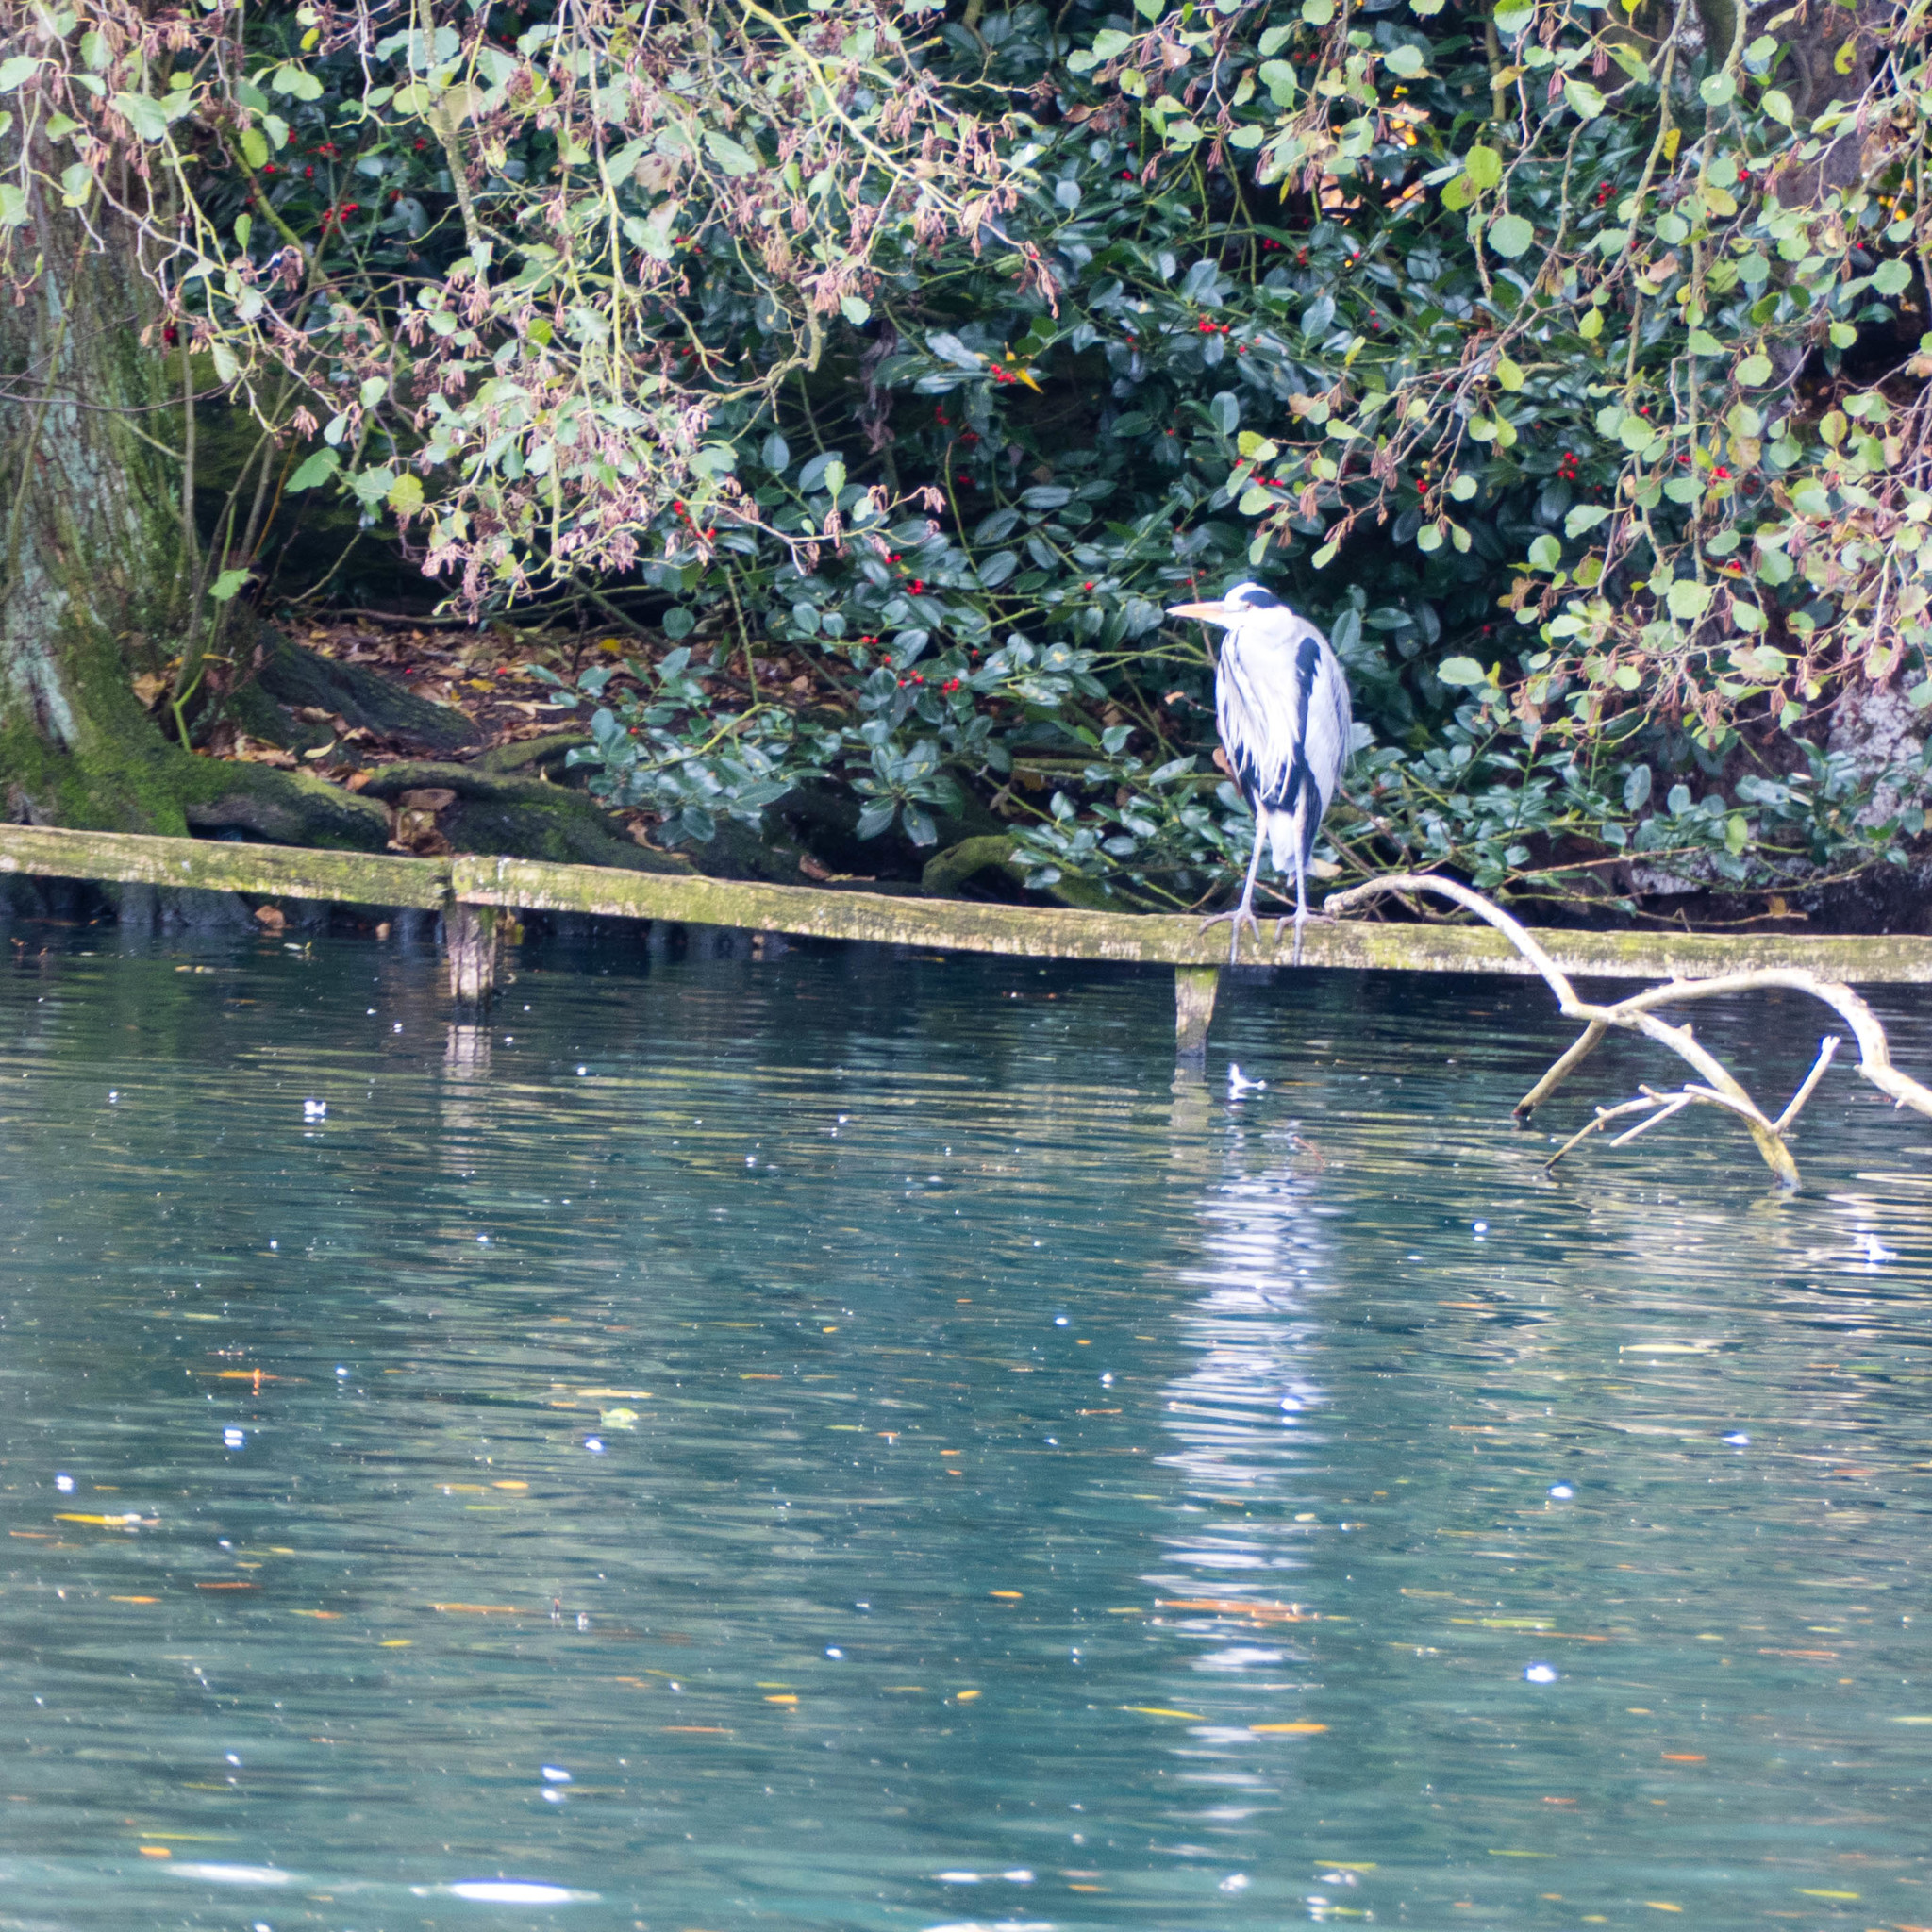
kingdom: Animalia
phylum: Chordata
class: Aves
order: Pelecaniformes
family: Ardeidae
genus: Ardea
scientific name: Ardea cinerea
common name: Grey heron
